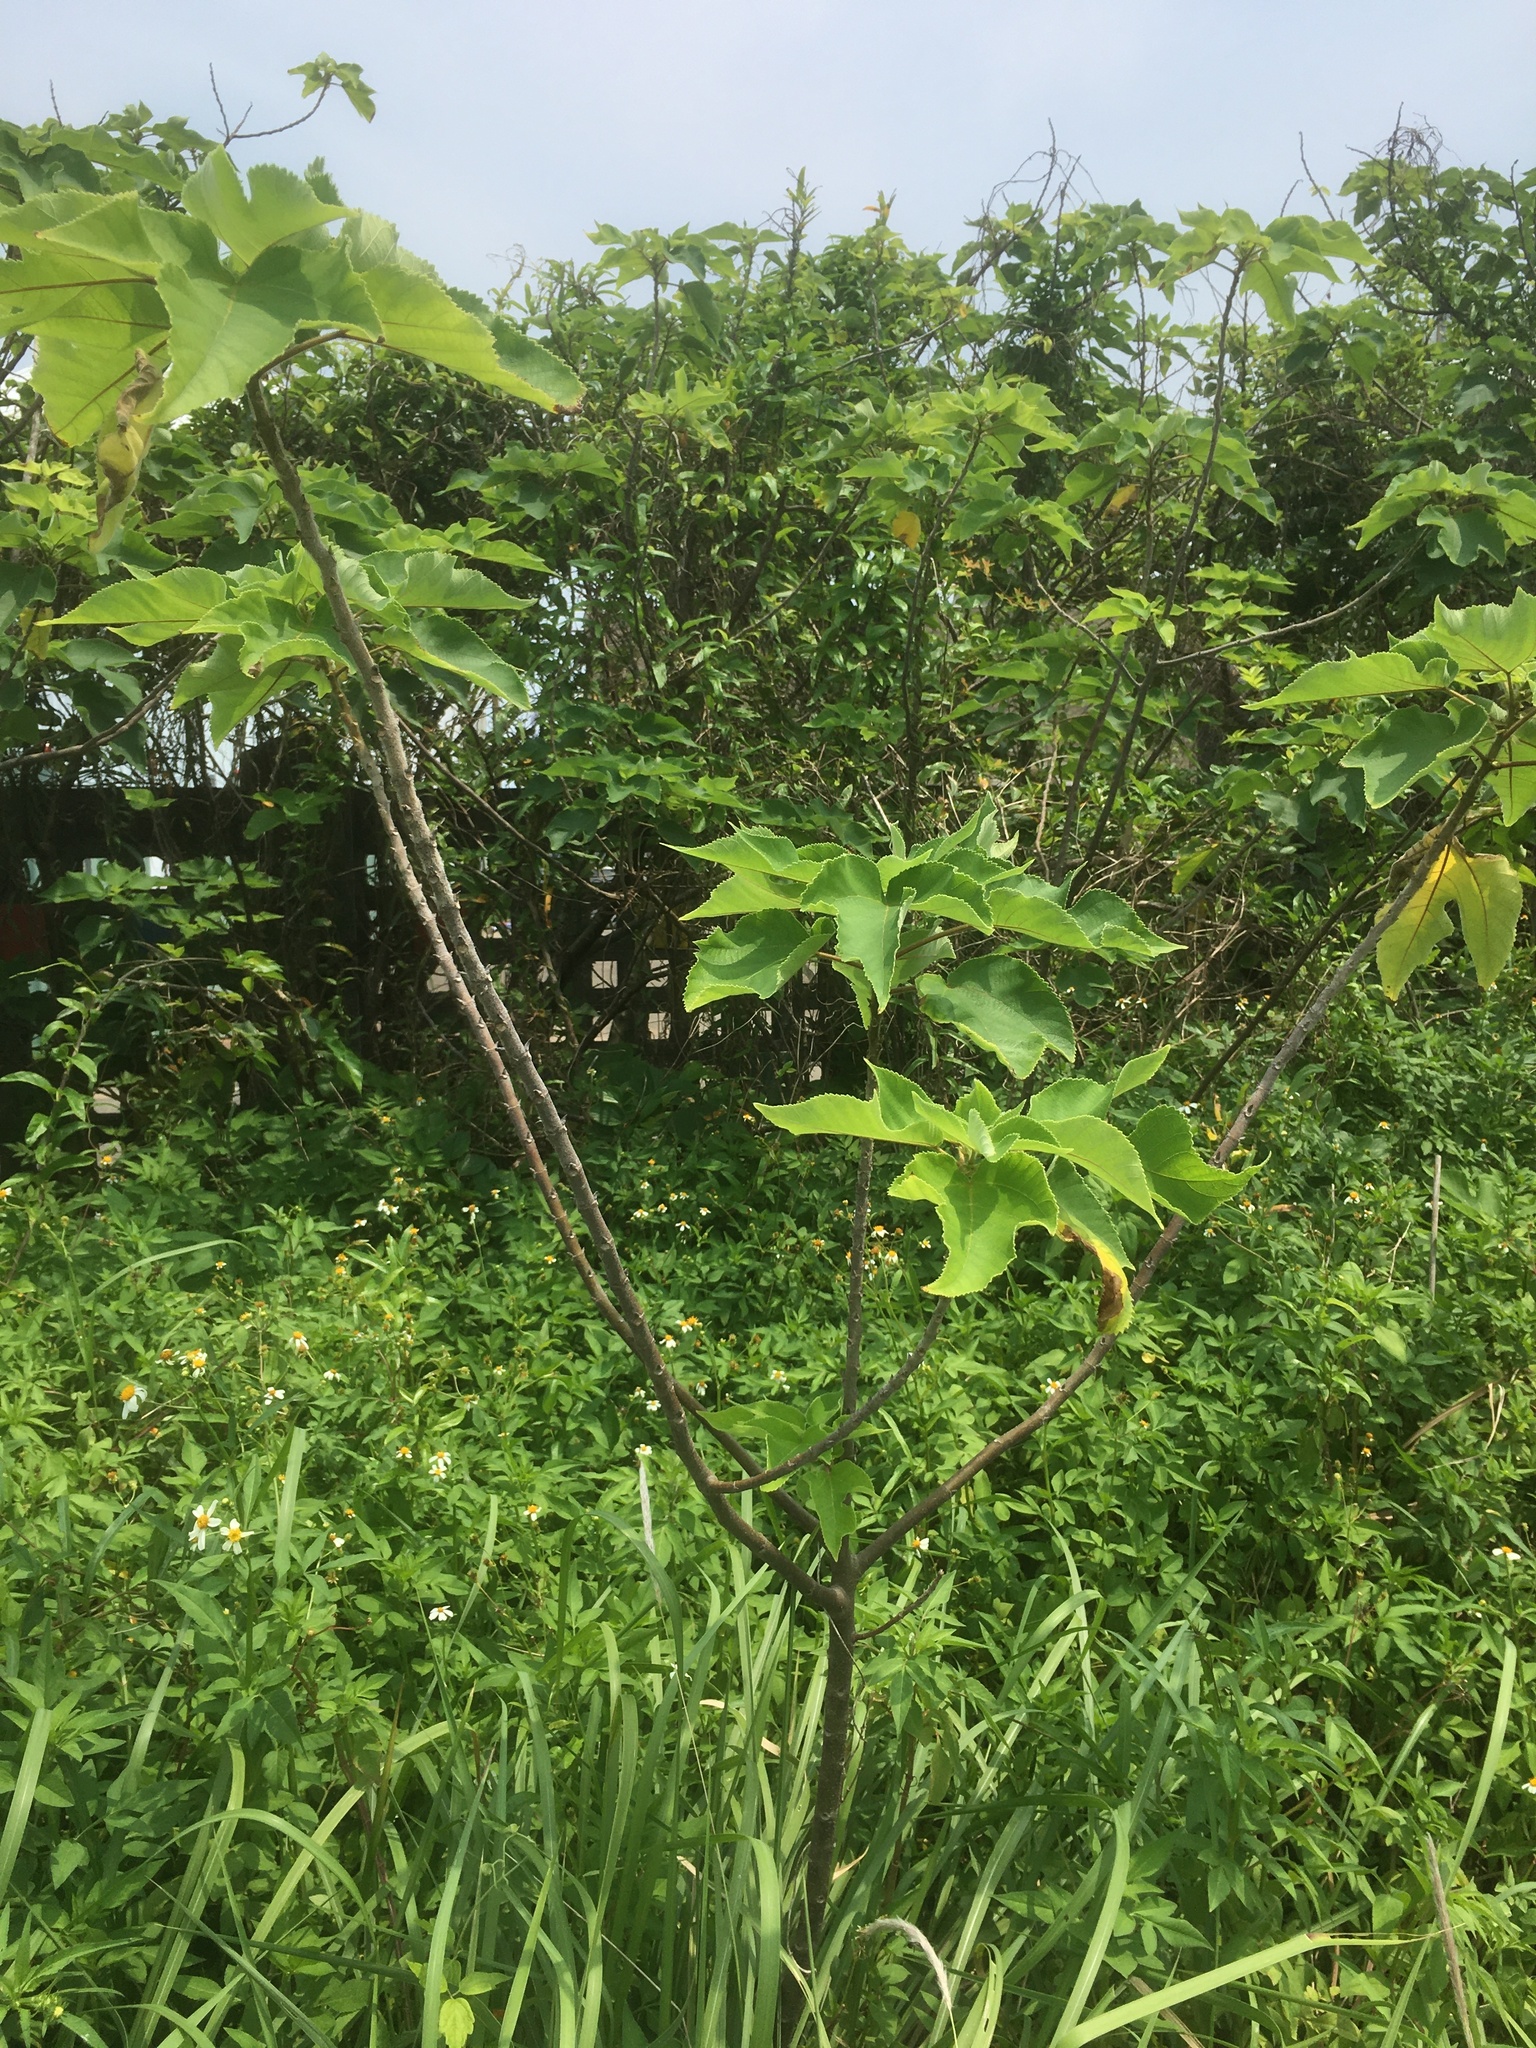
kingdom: Plantae
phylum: Tracheophyta
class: Magnoliopsida
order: Rosales
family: Moraceae
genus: Broussonetia
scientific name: Broussonetia papyrifera
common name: Paper mulberry
